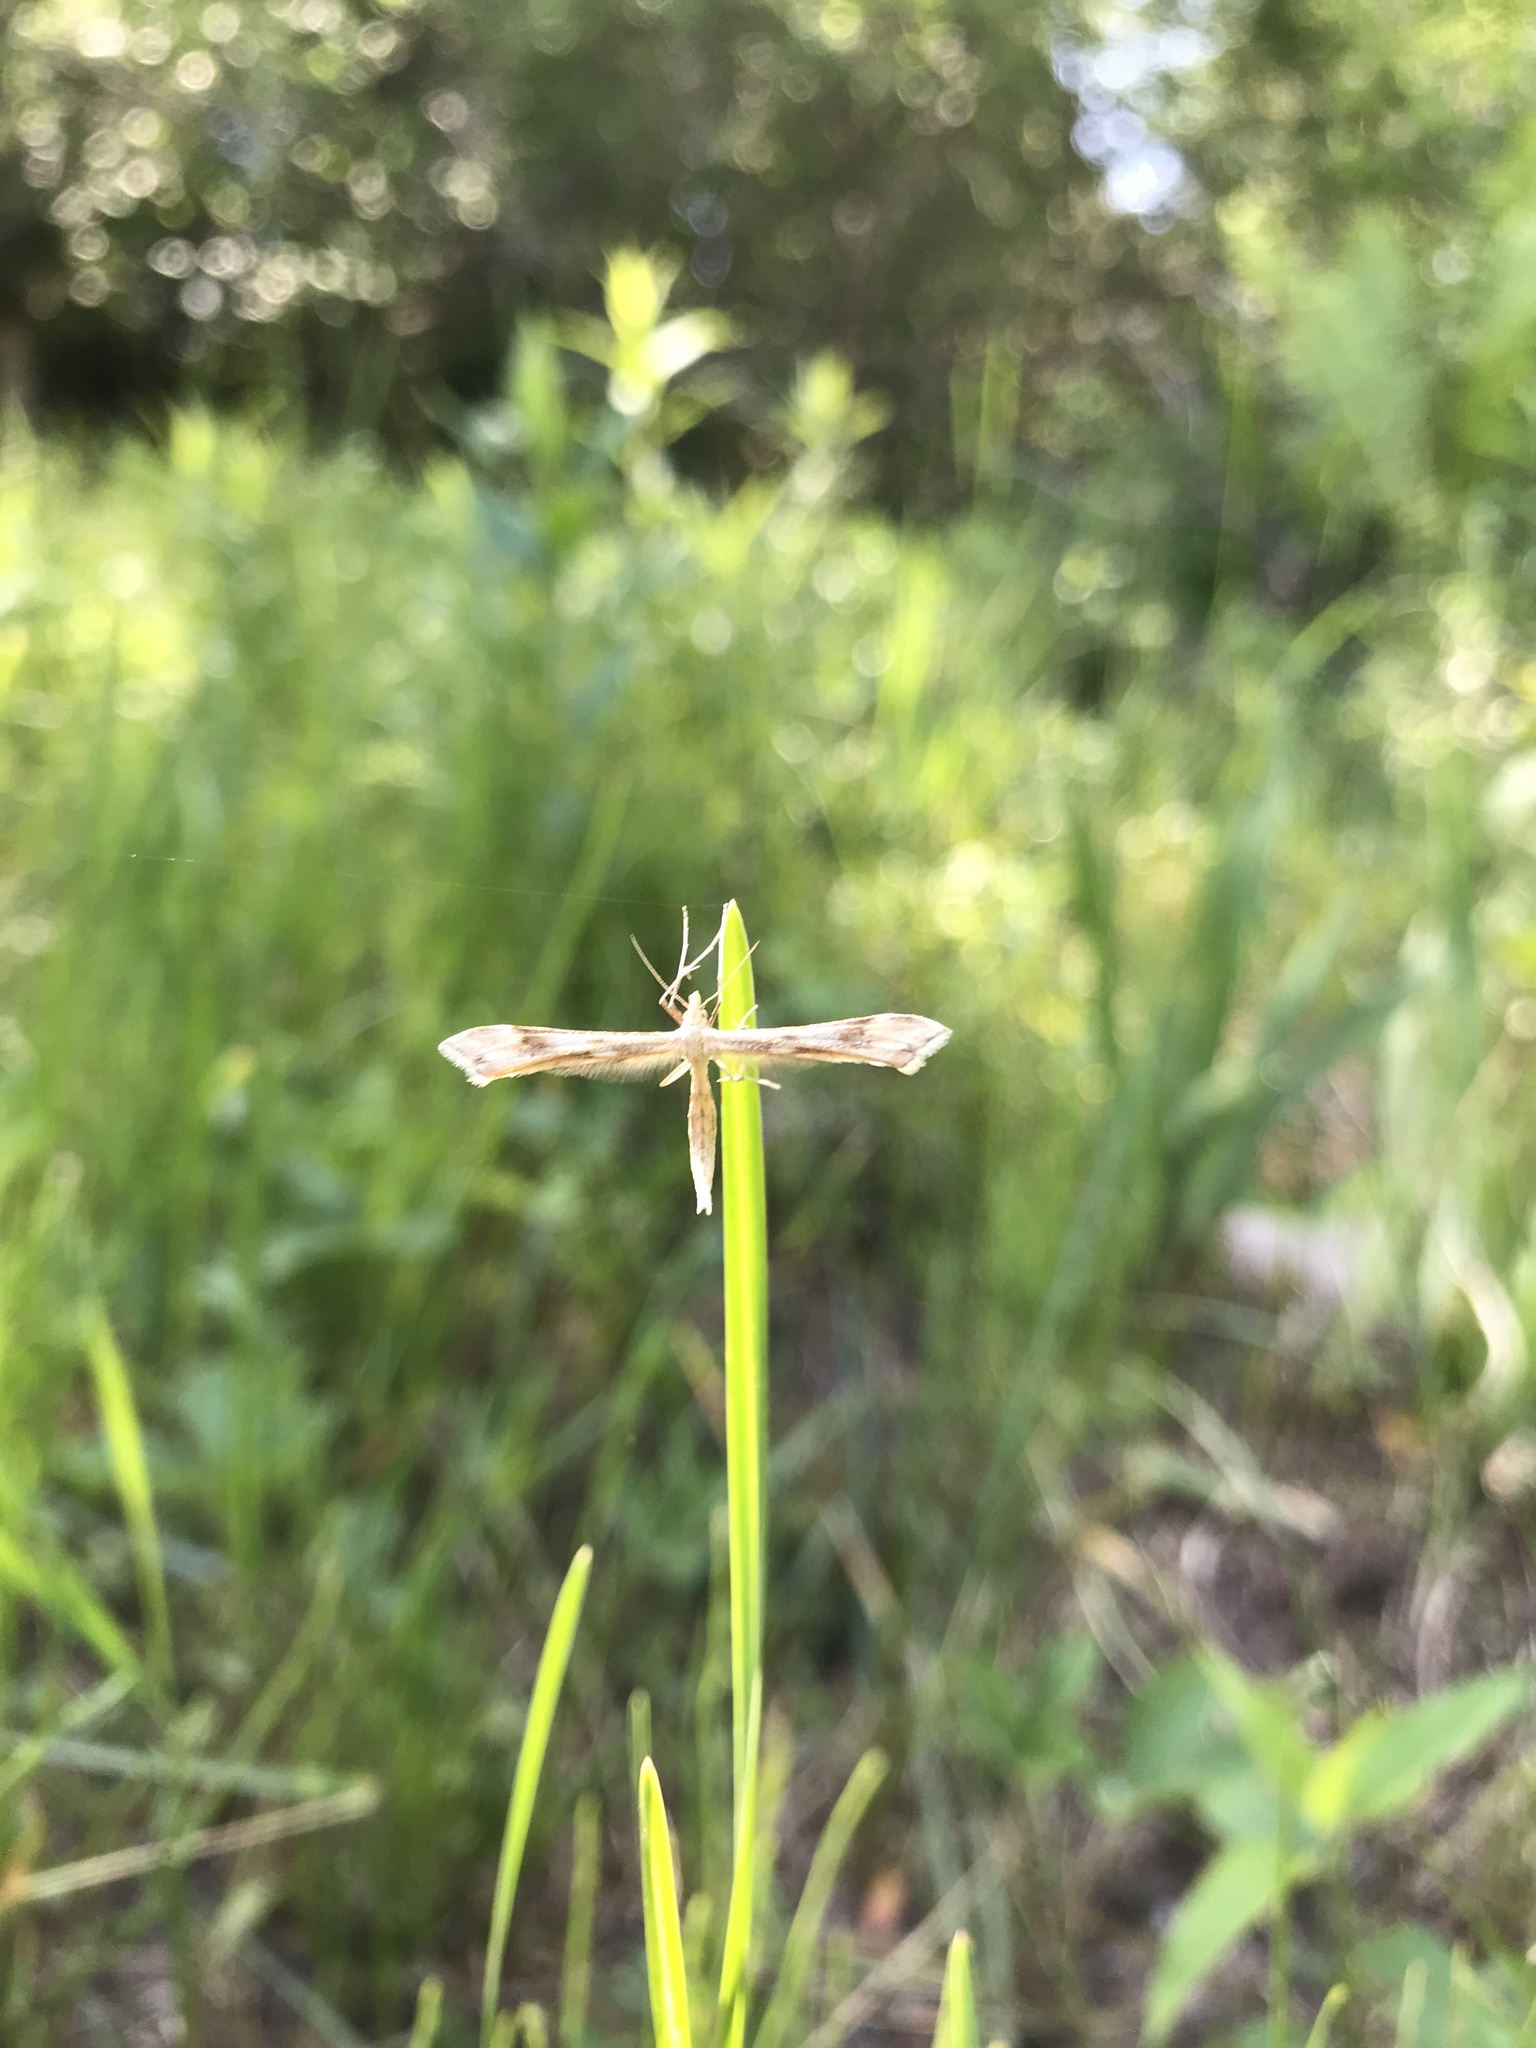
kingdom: Animalia
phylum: Arthropoda
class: Insecta
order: Lepidoptera
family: Pterophoridae
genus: Gillmeria
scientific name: Gillmeria pallidactyla
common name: Yarrow plume
